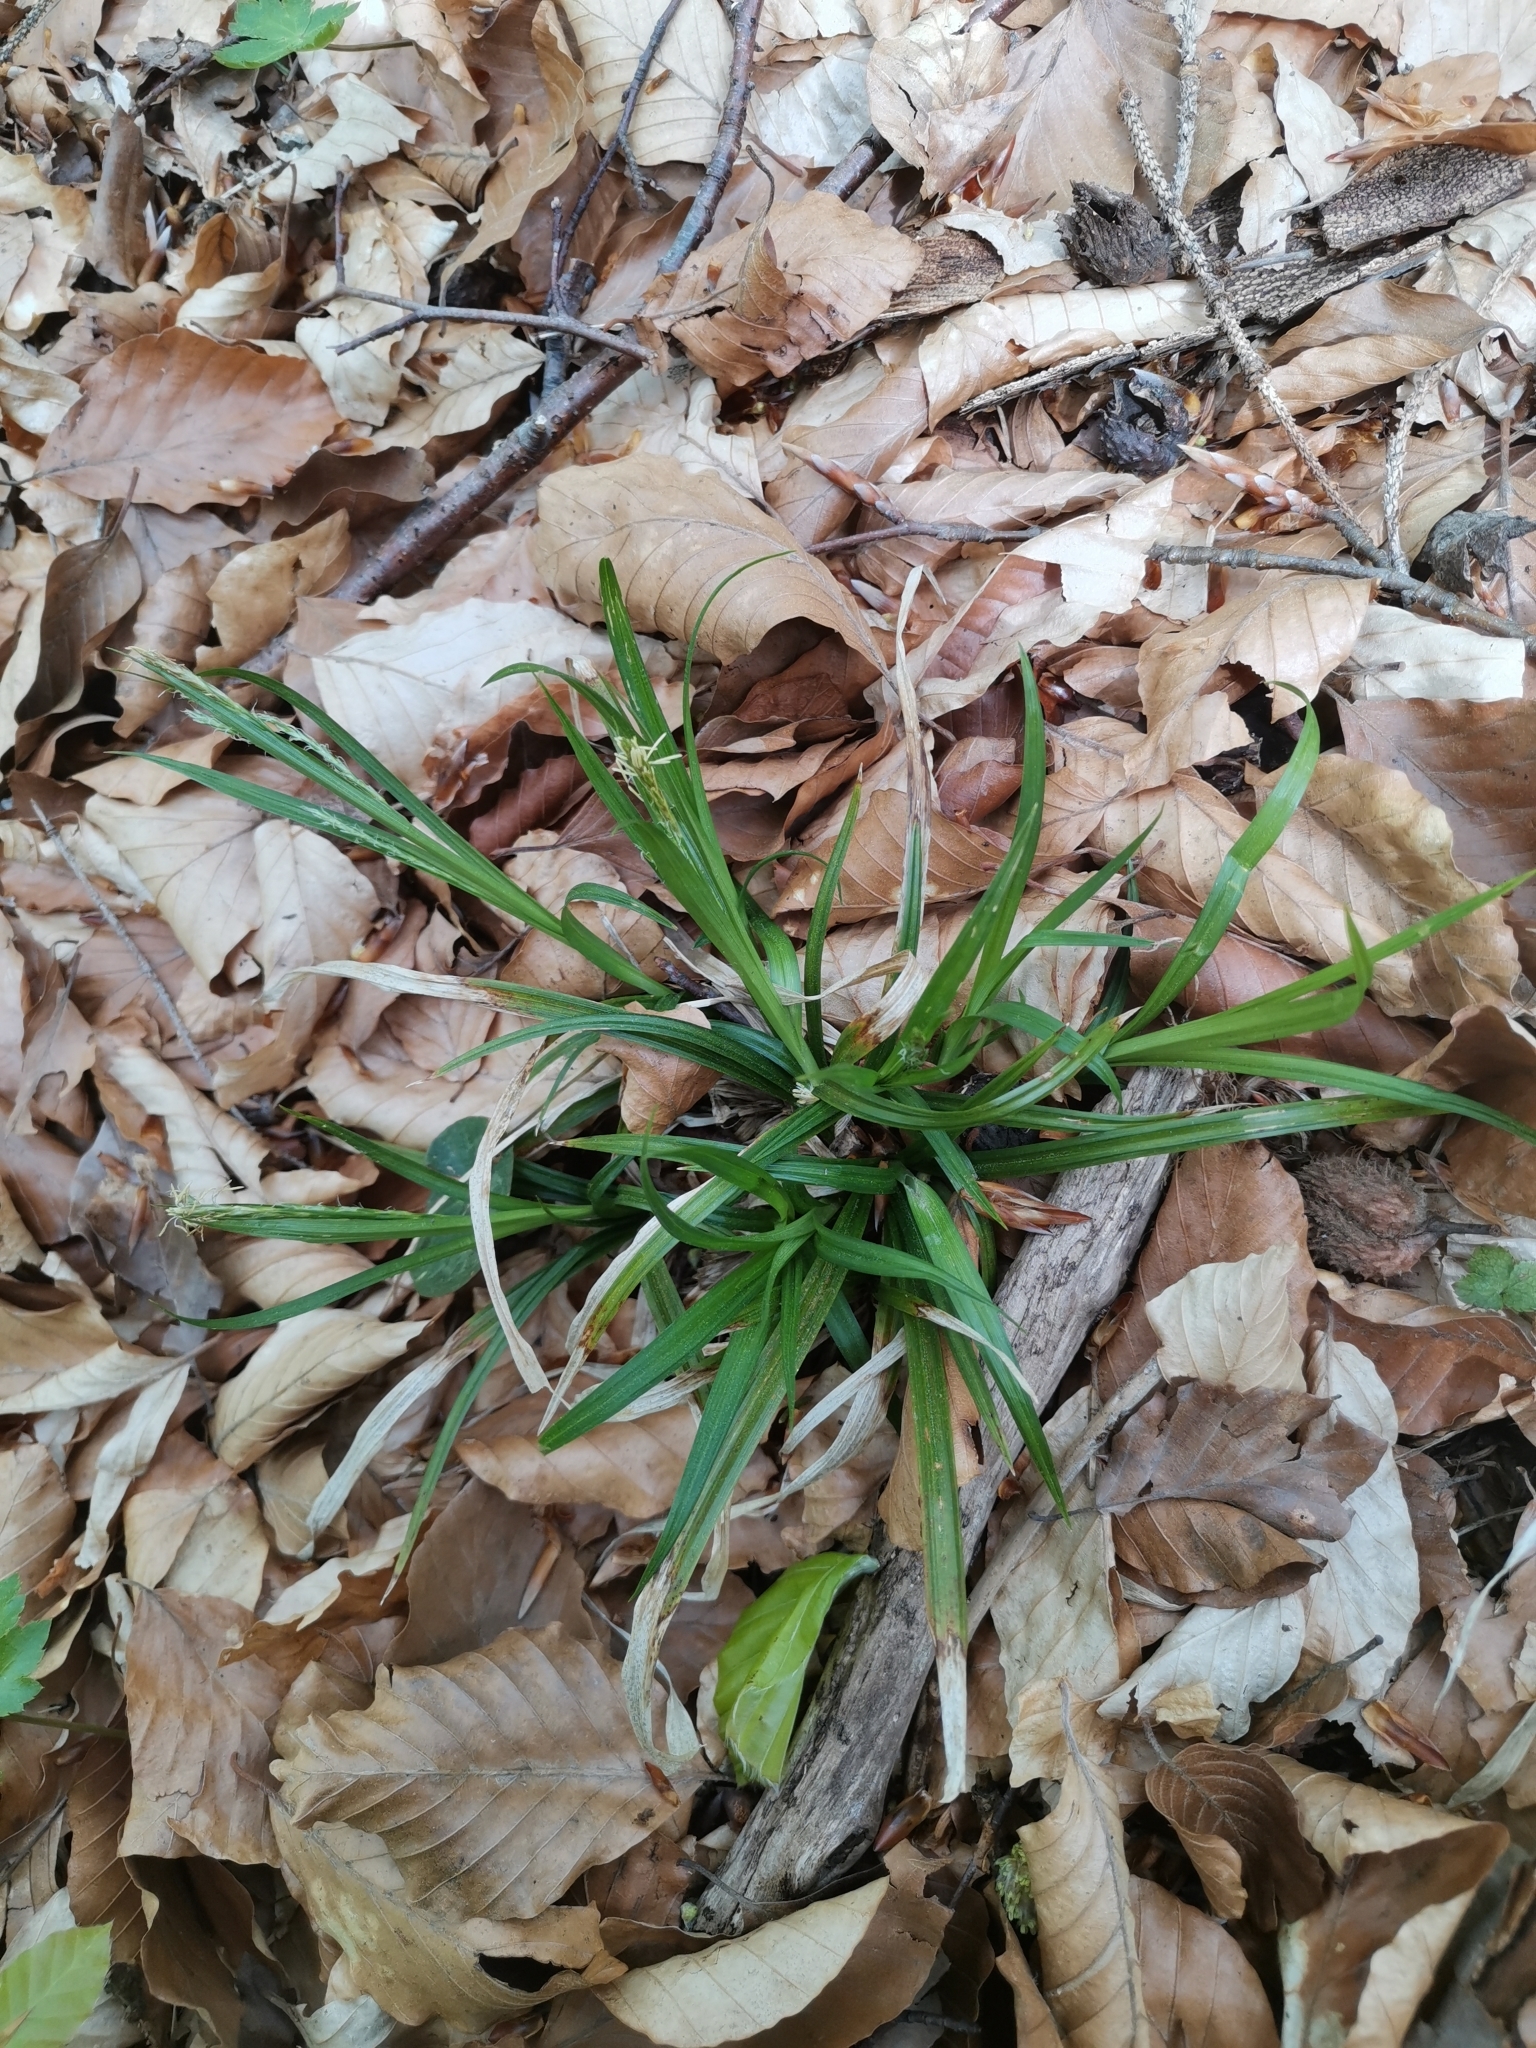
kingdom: Plantae
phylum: Tracheophyta
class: Liliopsida
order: Poales
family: Cyperaceae
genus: Carex
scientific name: Carex sylvatica
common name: Wood-sedge
